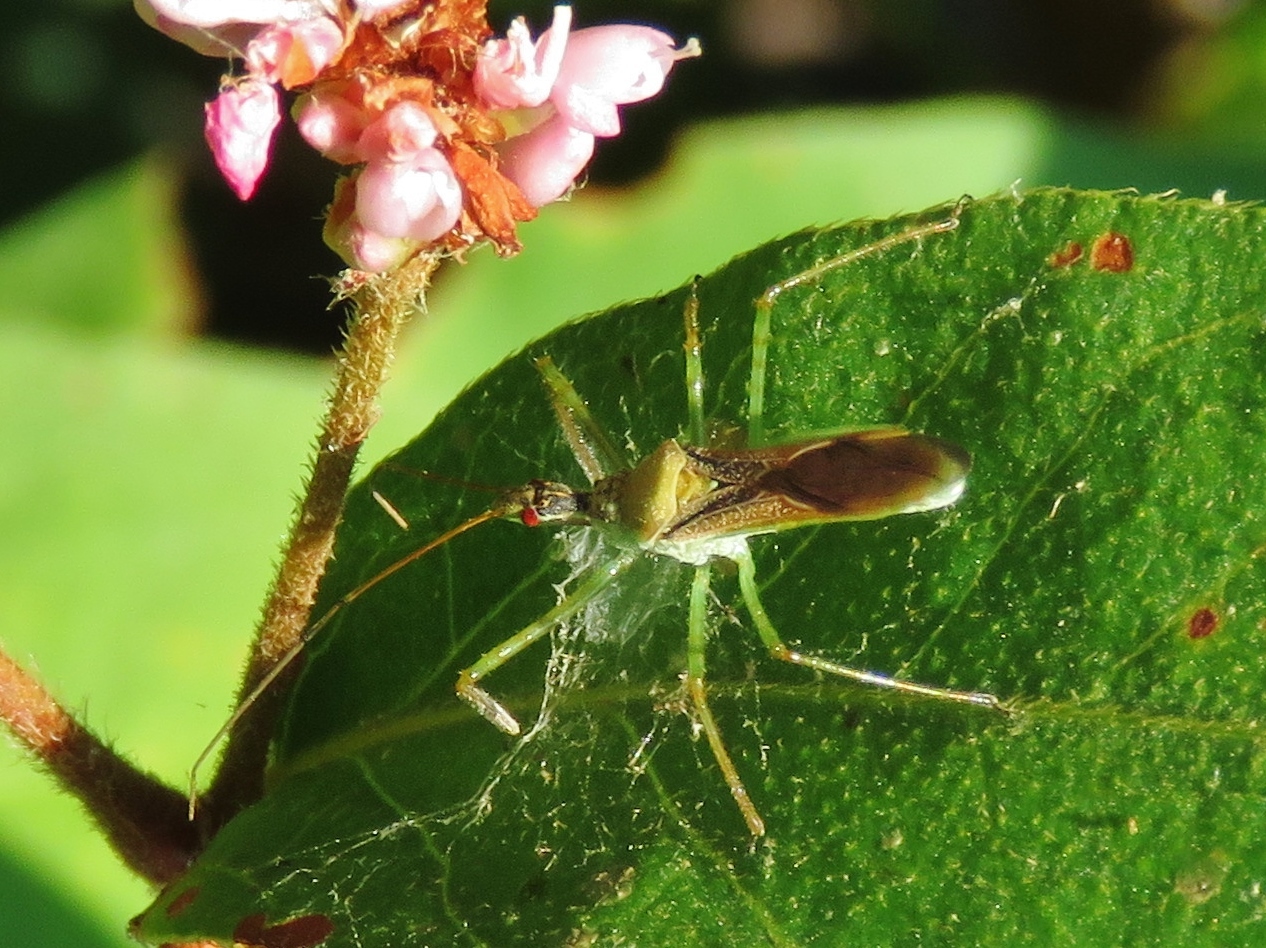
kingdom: Animalia
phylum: Arthropoda
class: Insecta
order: Hemiptera
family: Reduviidae
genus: Zelus
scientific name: Zelus renardii
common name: Assassin bug
